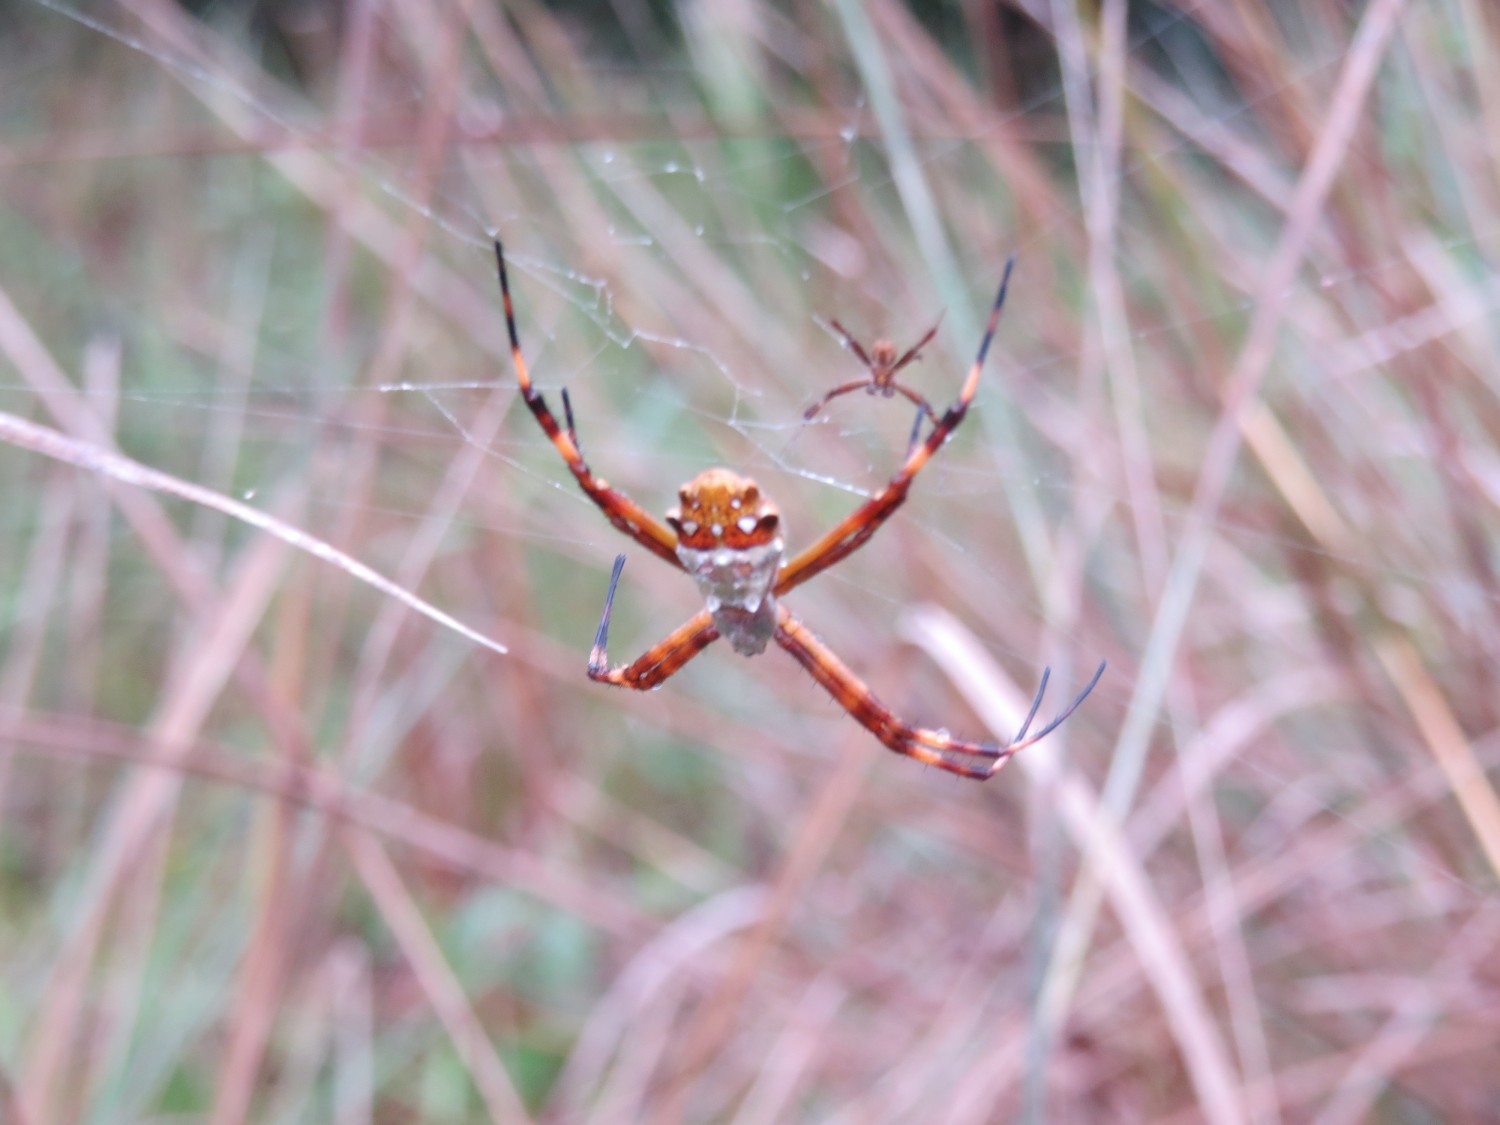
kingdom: Animalia
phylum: Arthropoda
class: Arachnida
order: Araneae
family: Araneidae
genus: Argiope
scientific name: Argiope argentata
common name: Orb weavers
